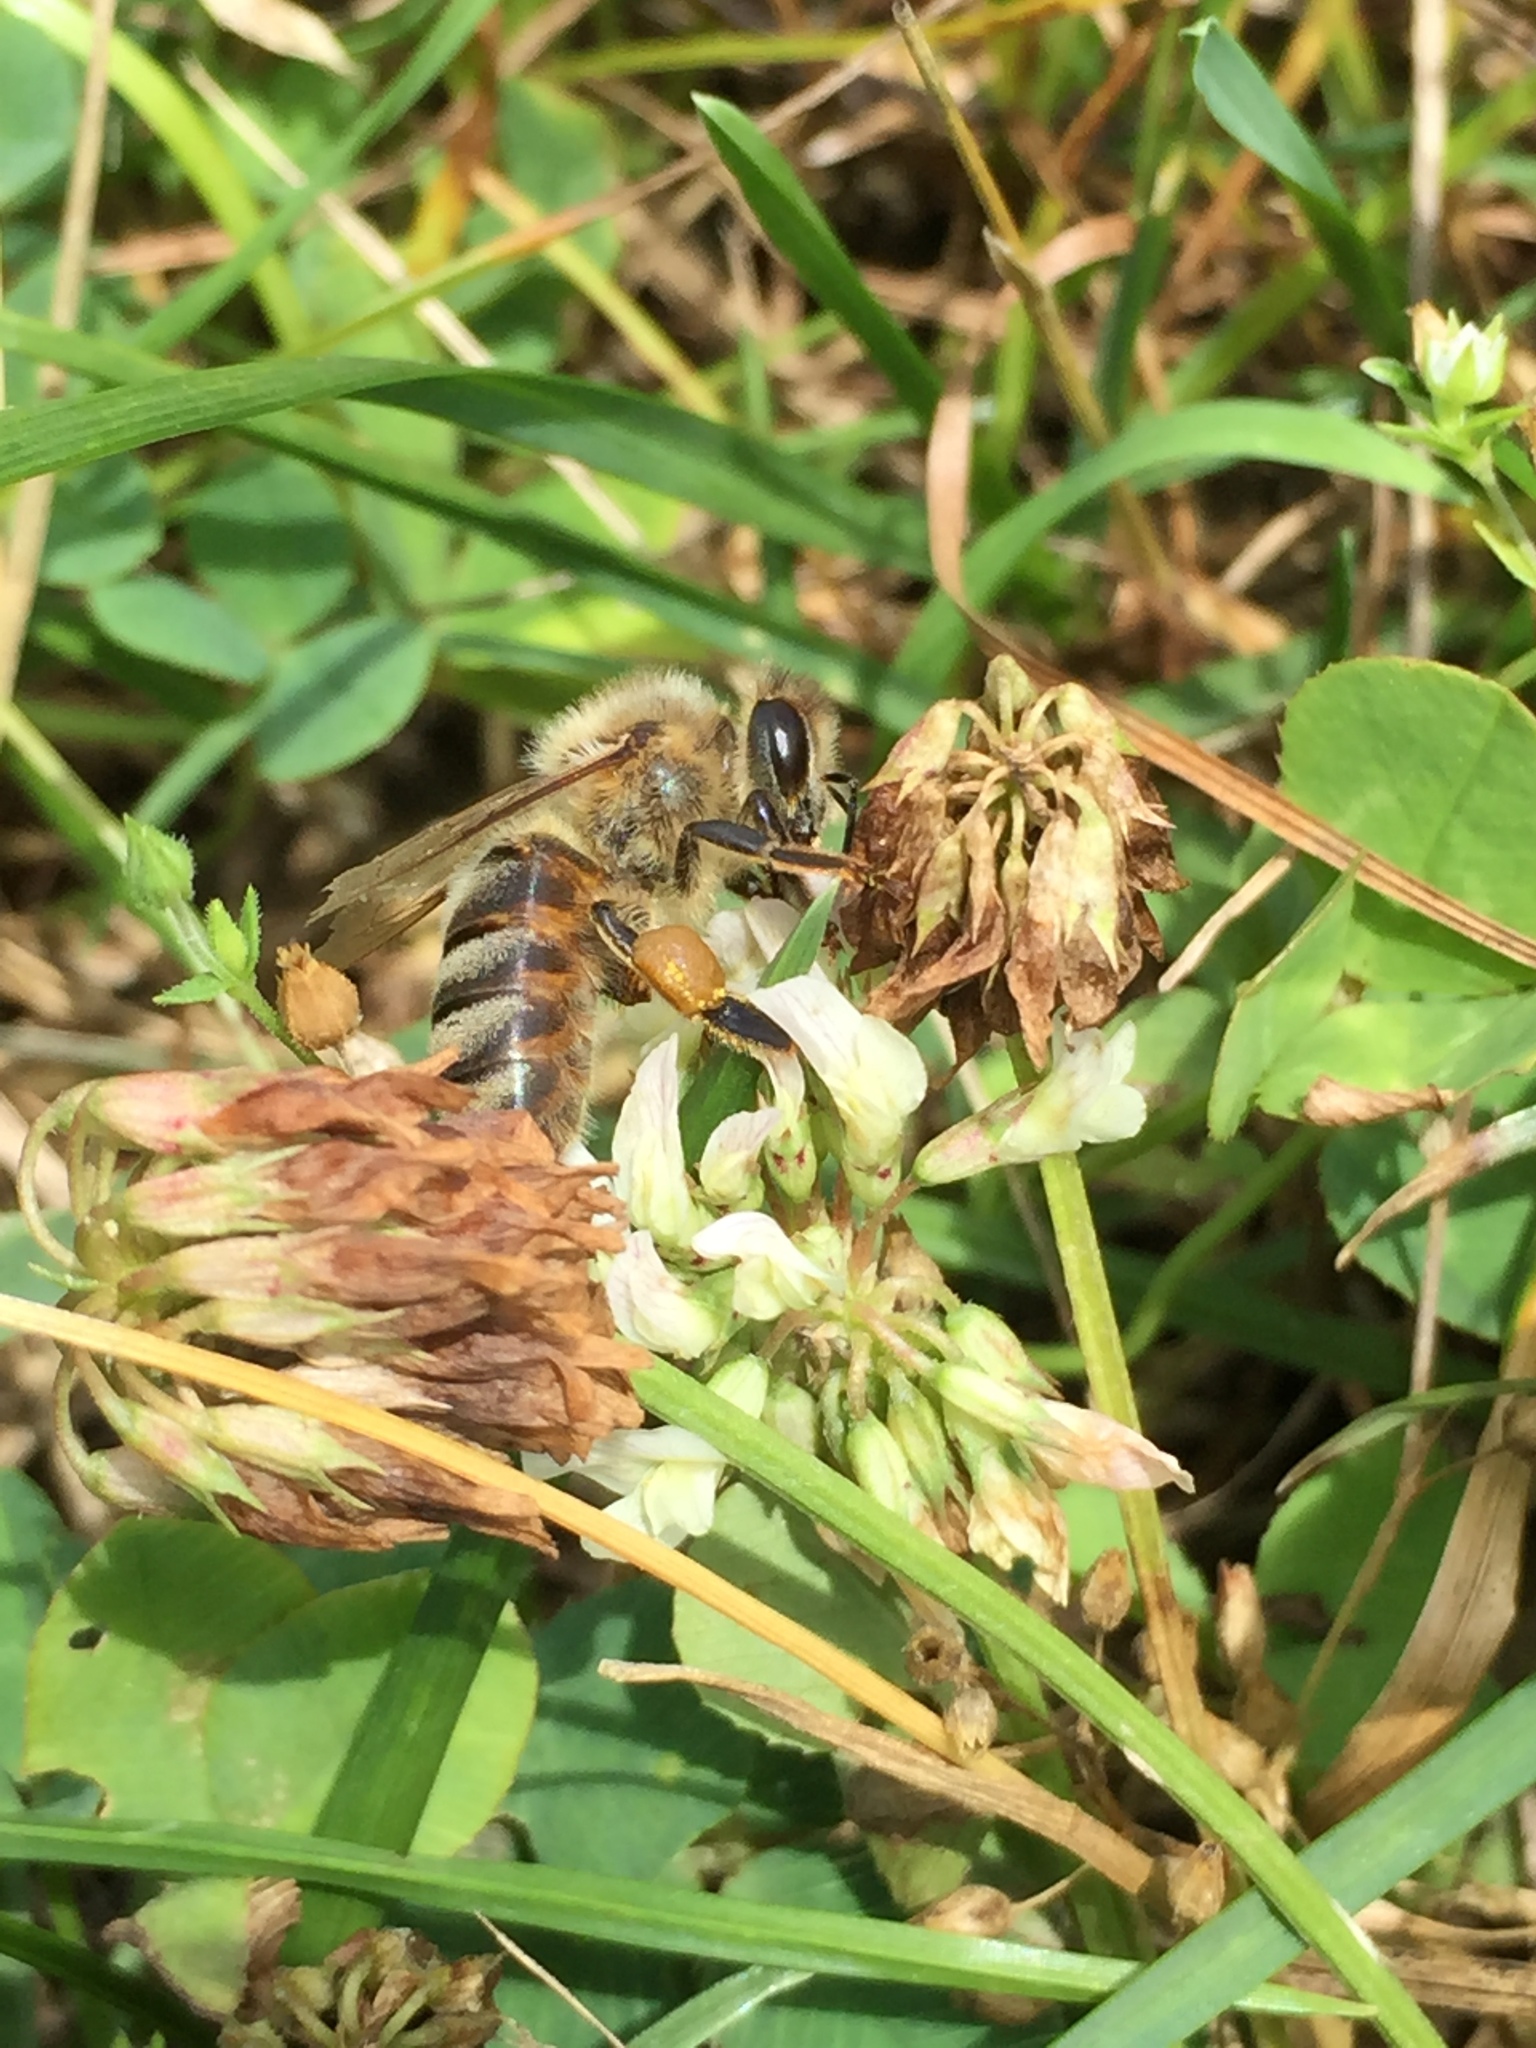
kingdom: Animalia
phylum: Arthropoda
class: Insecta
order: Hymenoptera
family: Apidae
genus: Apis
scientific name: Apis mellifera
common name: Honey bee
